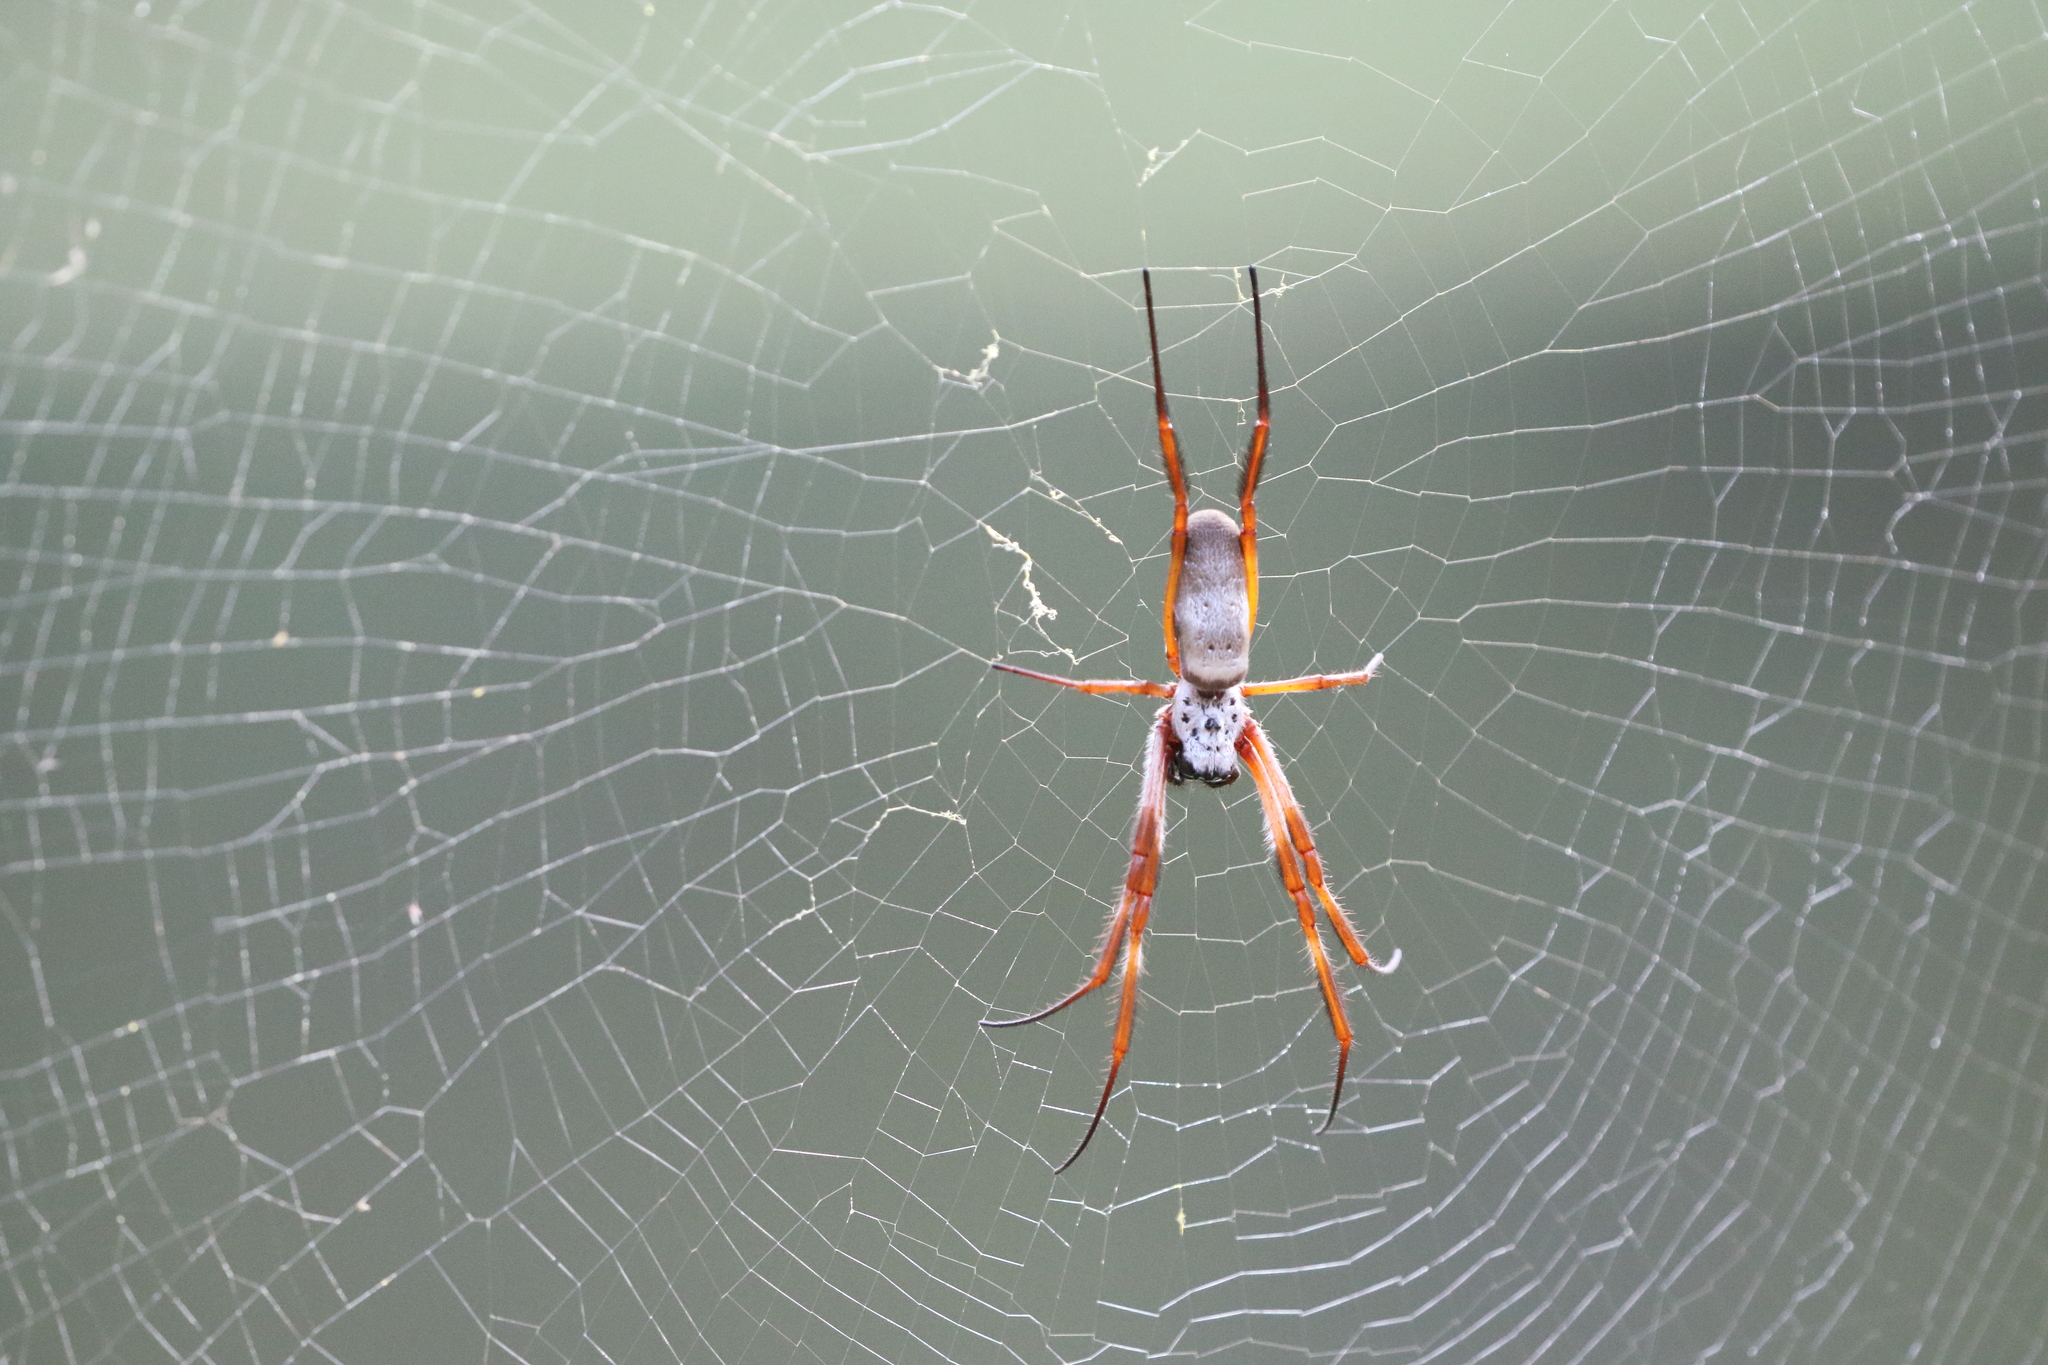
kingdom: Animalia
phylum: Arthropoda
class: Arachnida
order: Araneae
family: Araneidae
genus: Trichonephila
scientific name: Trichonephila edulis
